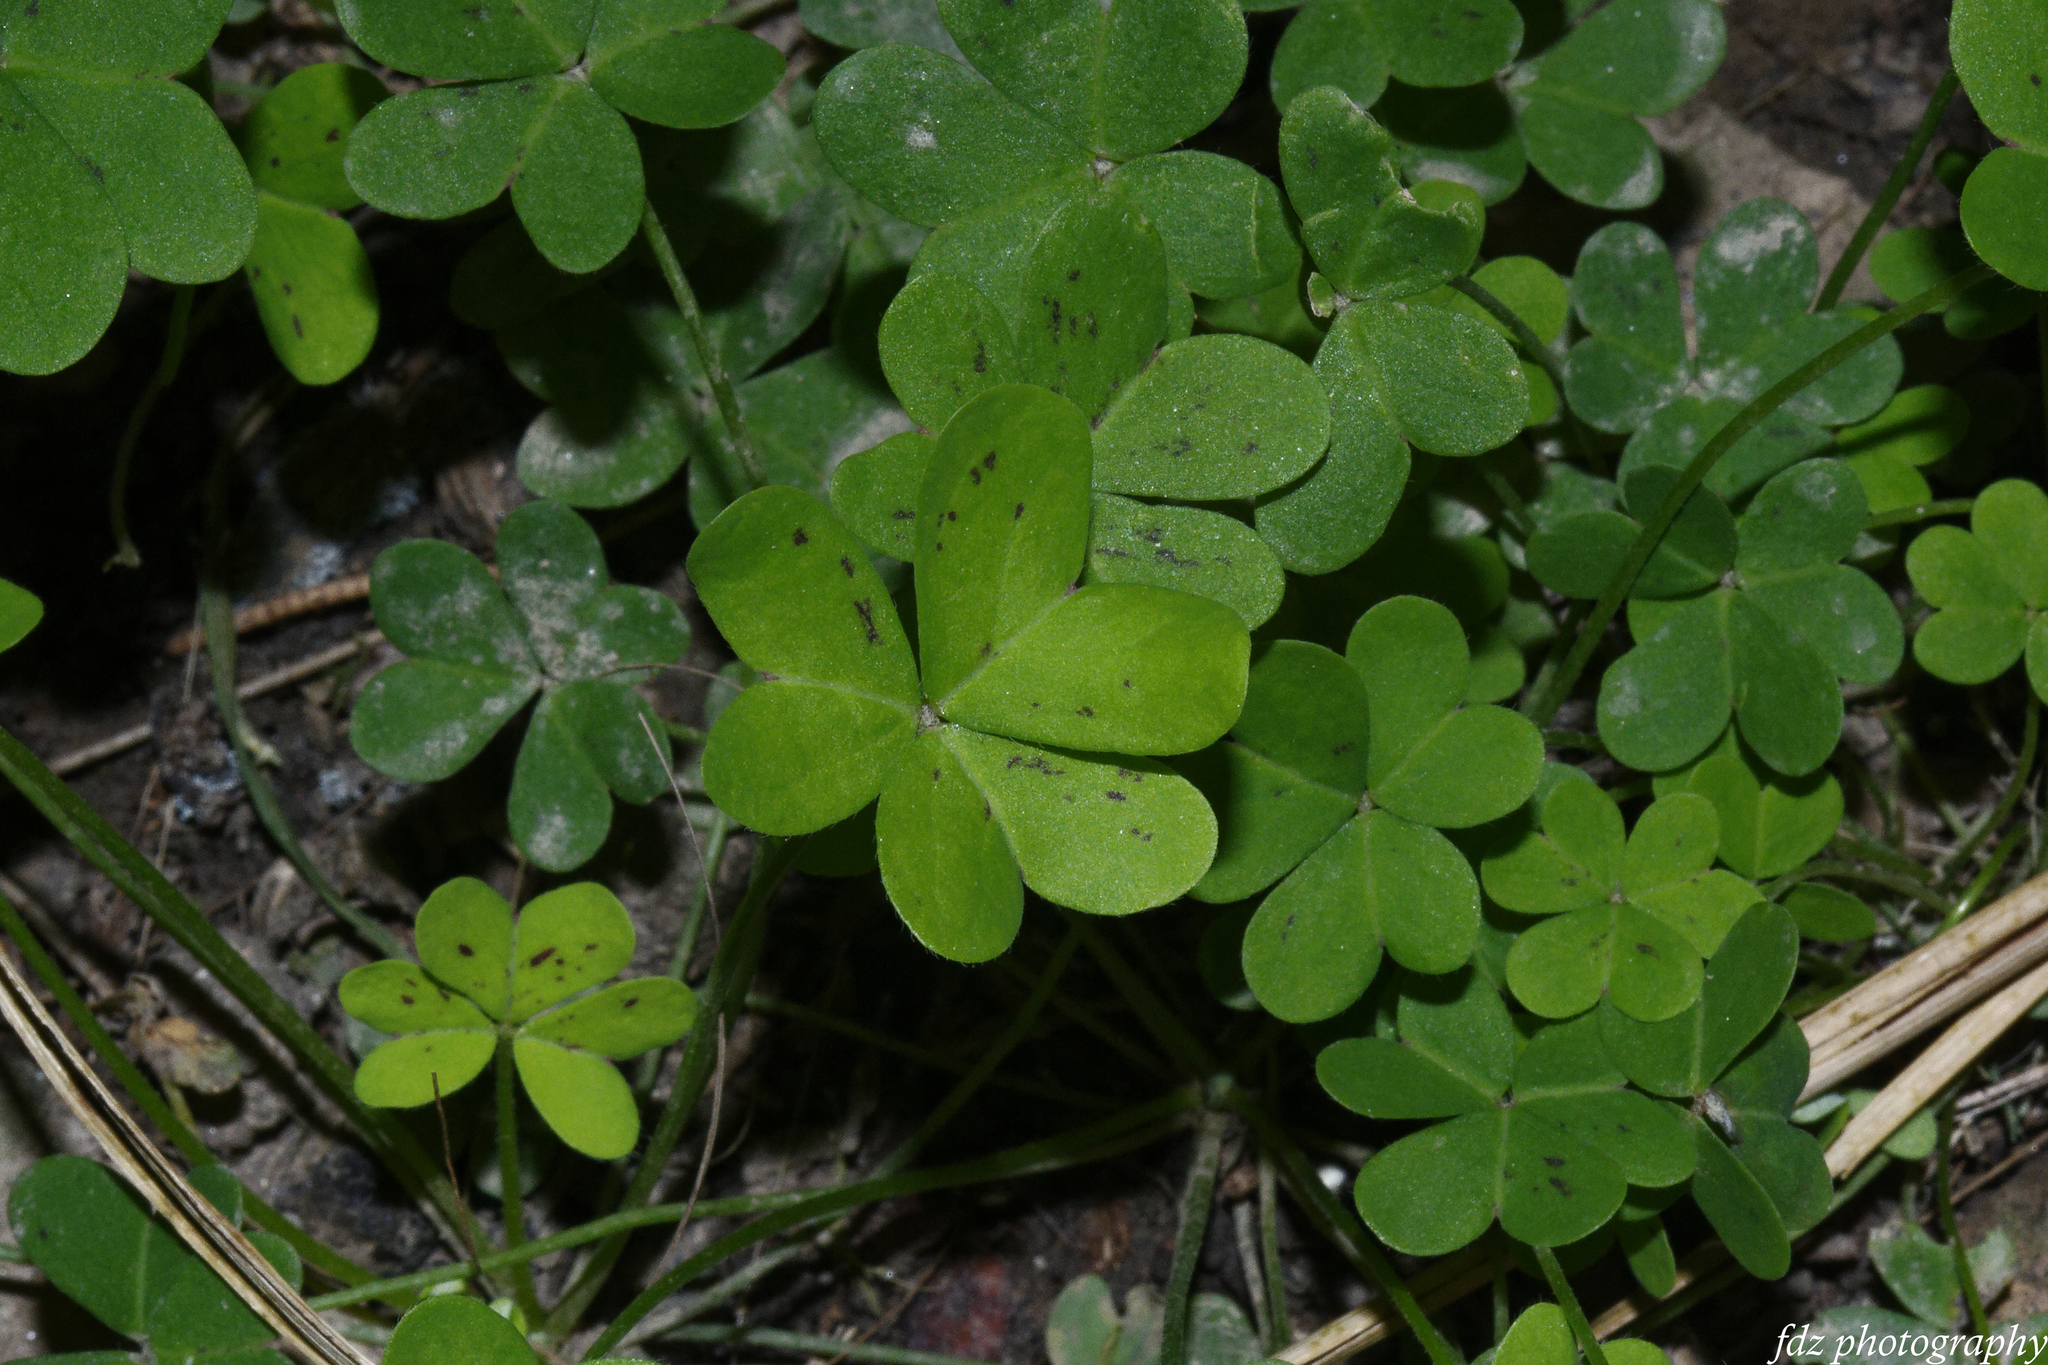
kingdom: Plantae
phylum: Tracheophyta
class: Magnoliopsida
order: Oxalidales
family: Oxalidaceae
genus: Oxalis
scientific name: Oxalis pes-caprae
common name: Bermuda-buttercup
